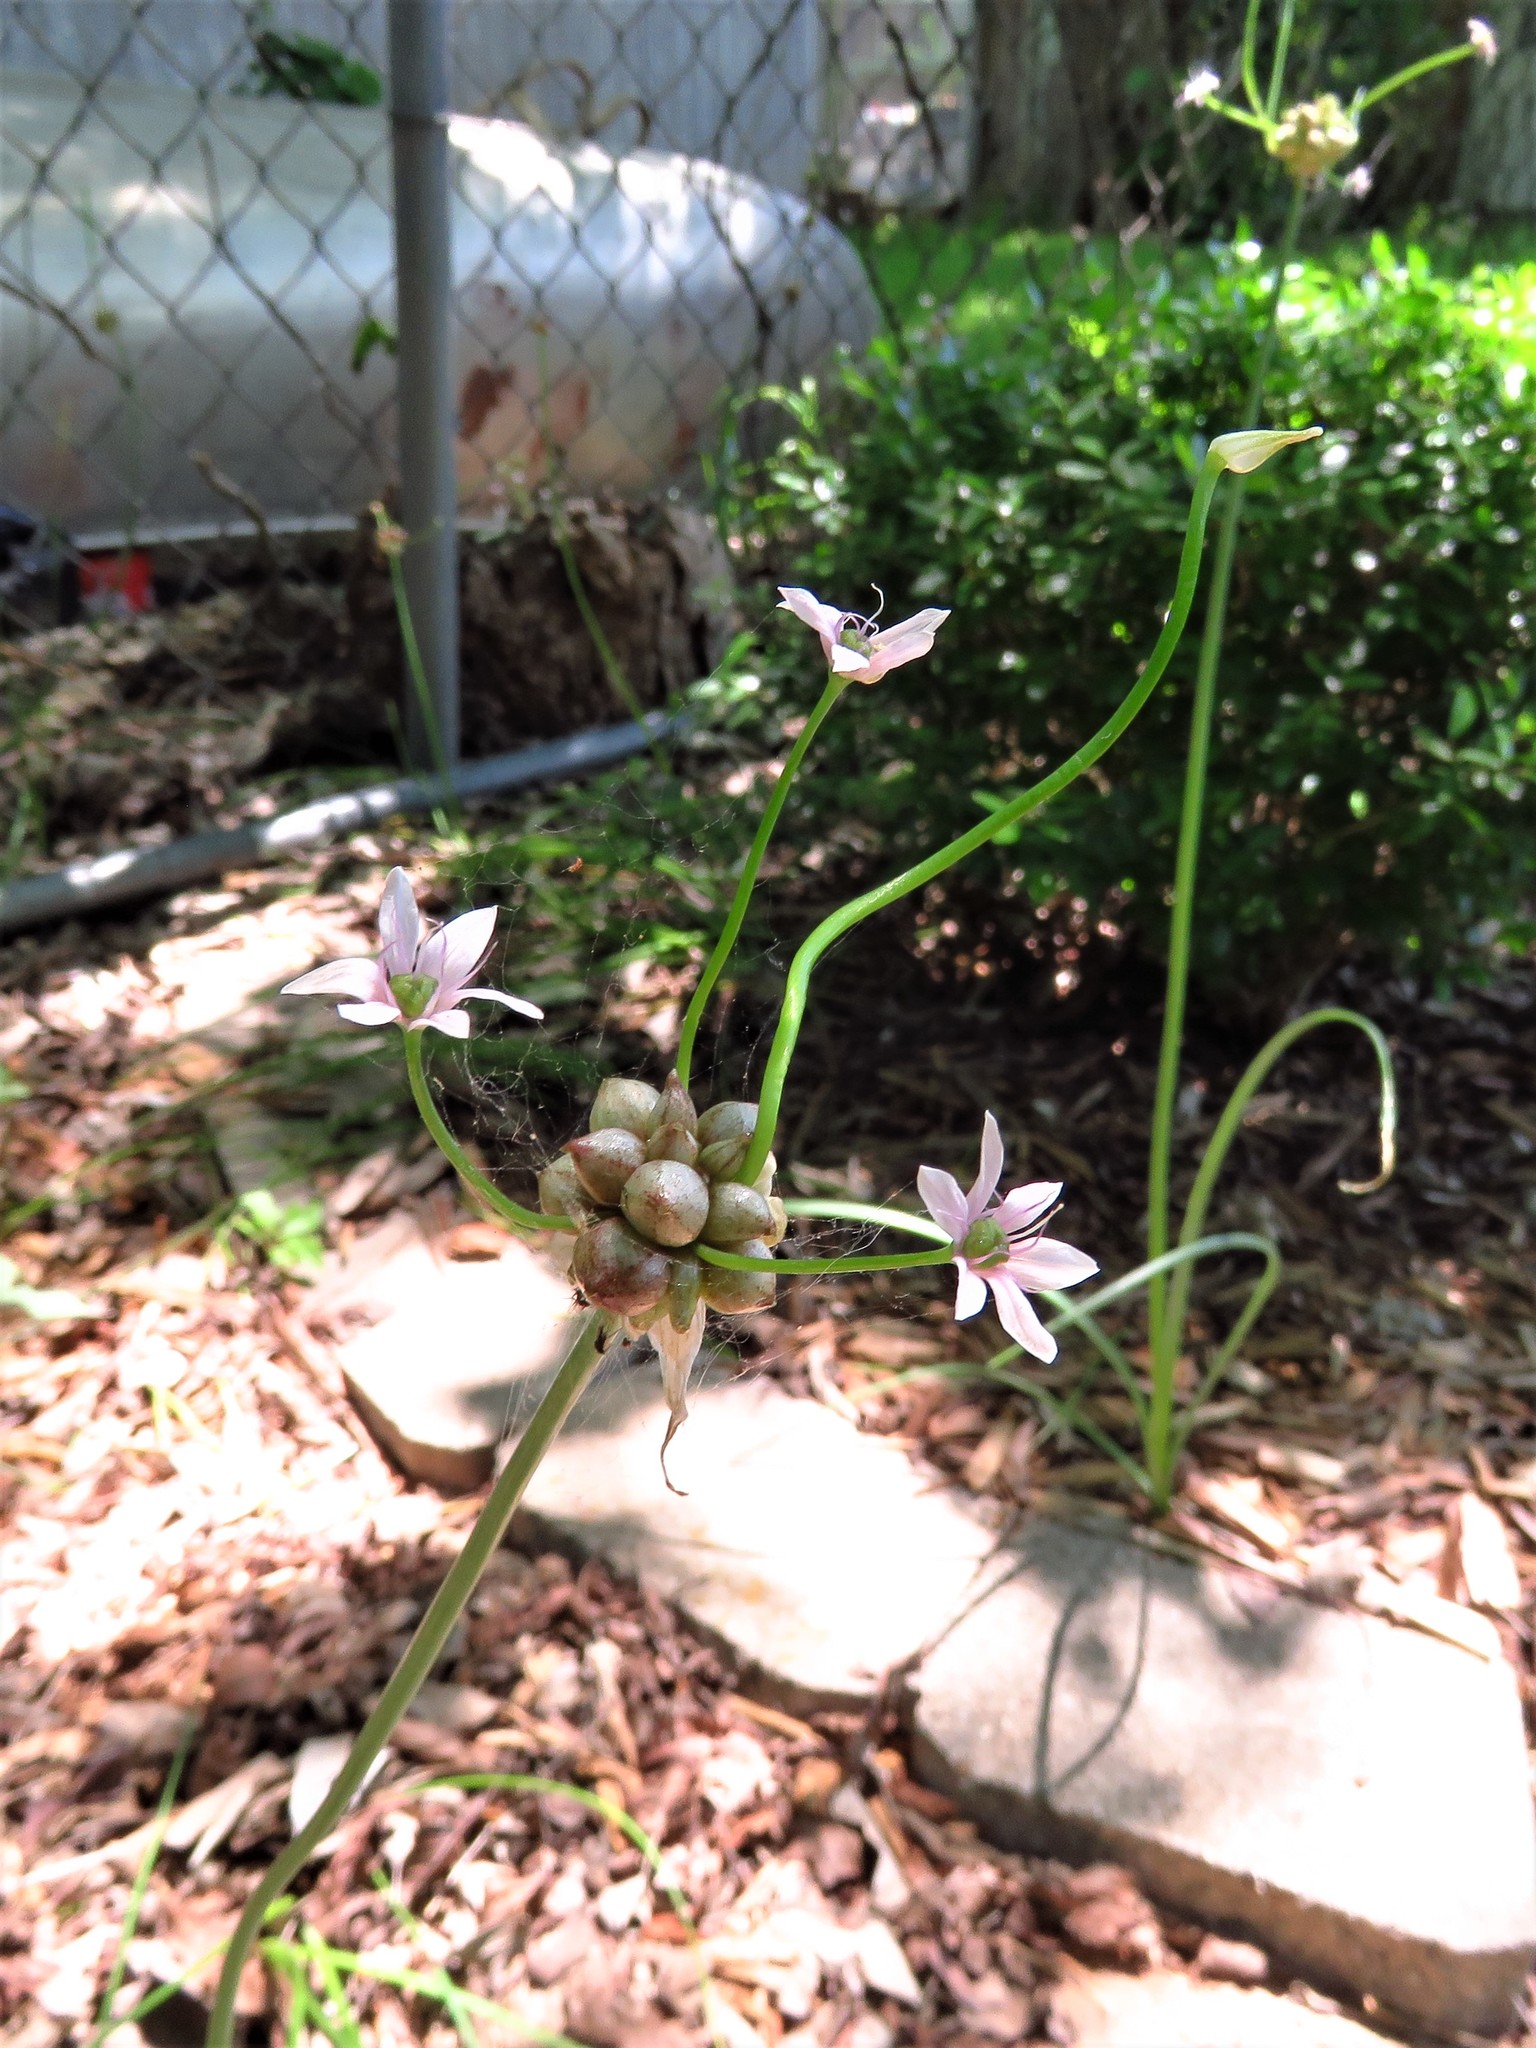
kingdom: Plantae
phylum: Tracheophyta
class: Liliopsida
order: Asparagales
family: Amaryllidaceae
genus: Allium
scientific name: Allium canadense
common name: Meadow garlic
